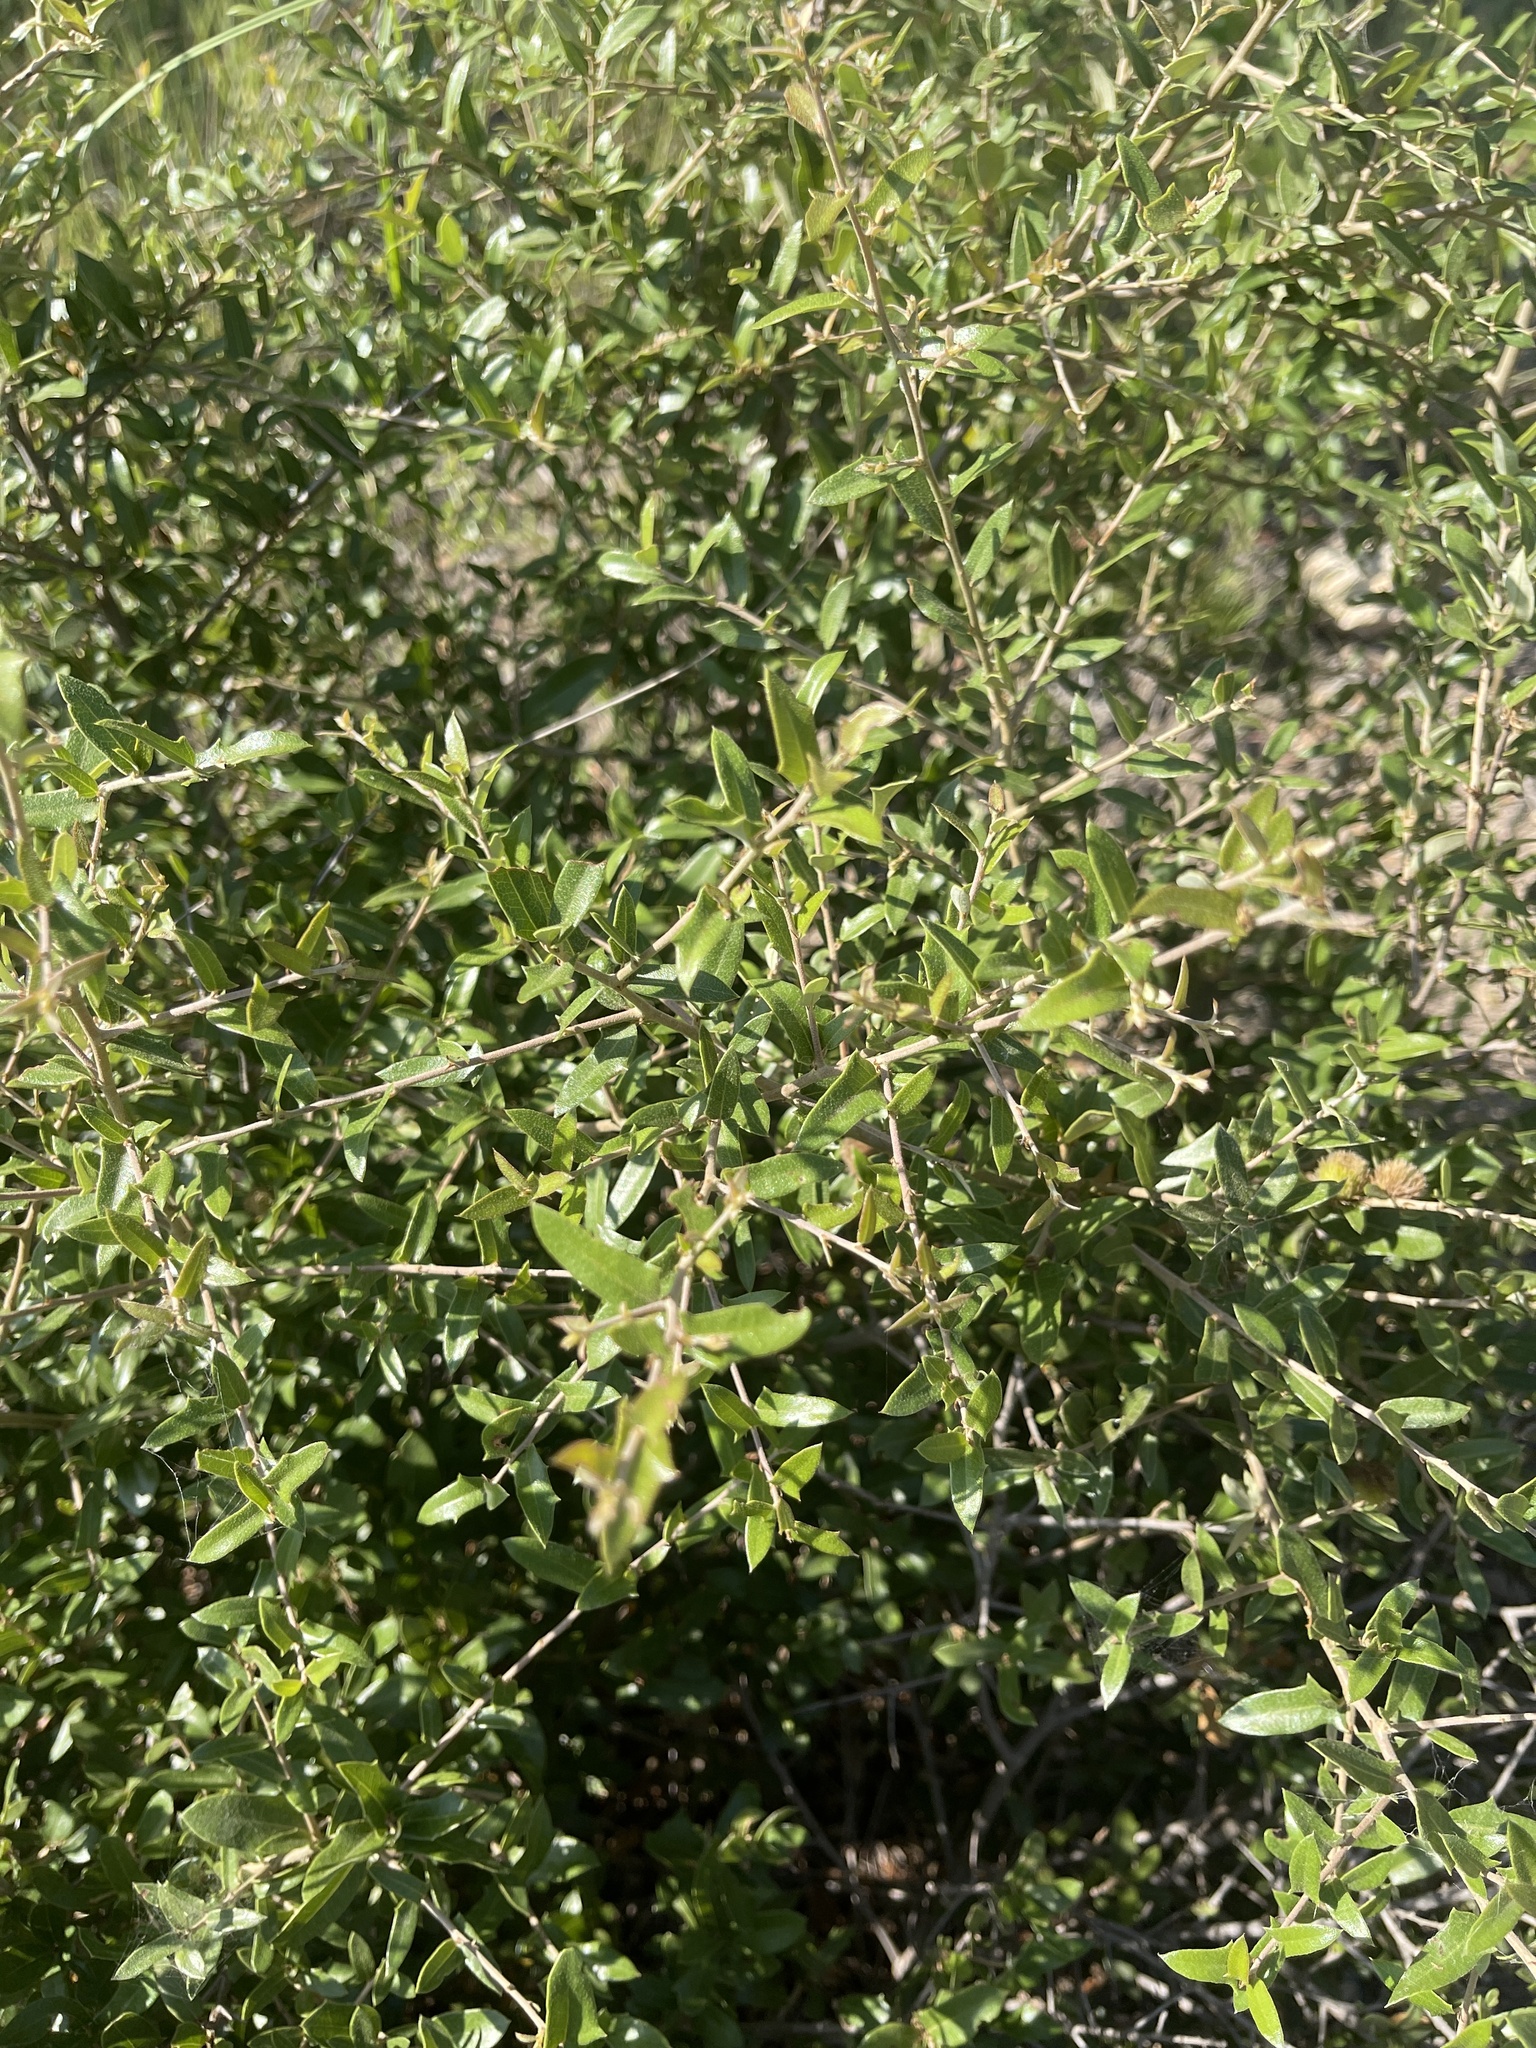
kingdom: Plantae
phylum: Tracheophyta
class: Magnoliopsida
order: Fagales
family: Fagaceae
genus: Quercus
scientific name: Quercus fusiformis
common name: Texas live oak
